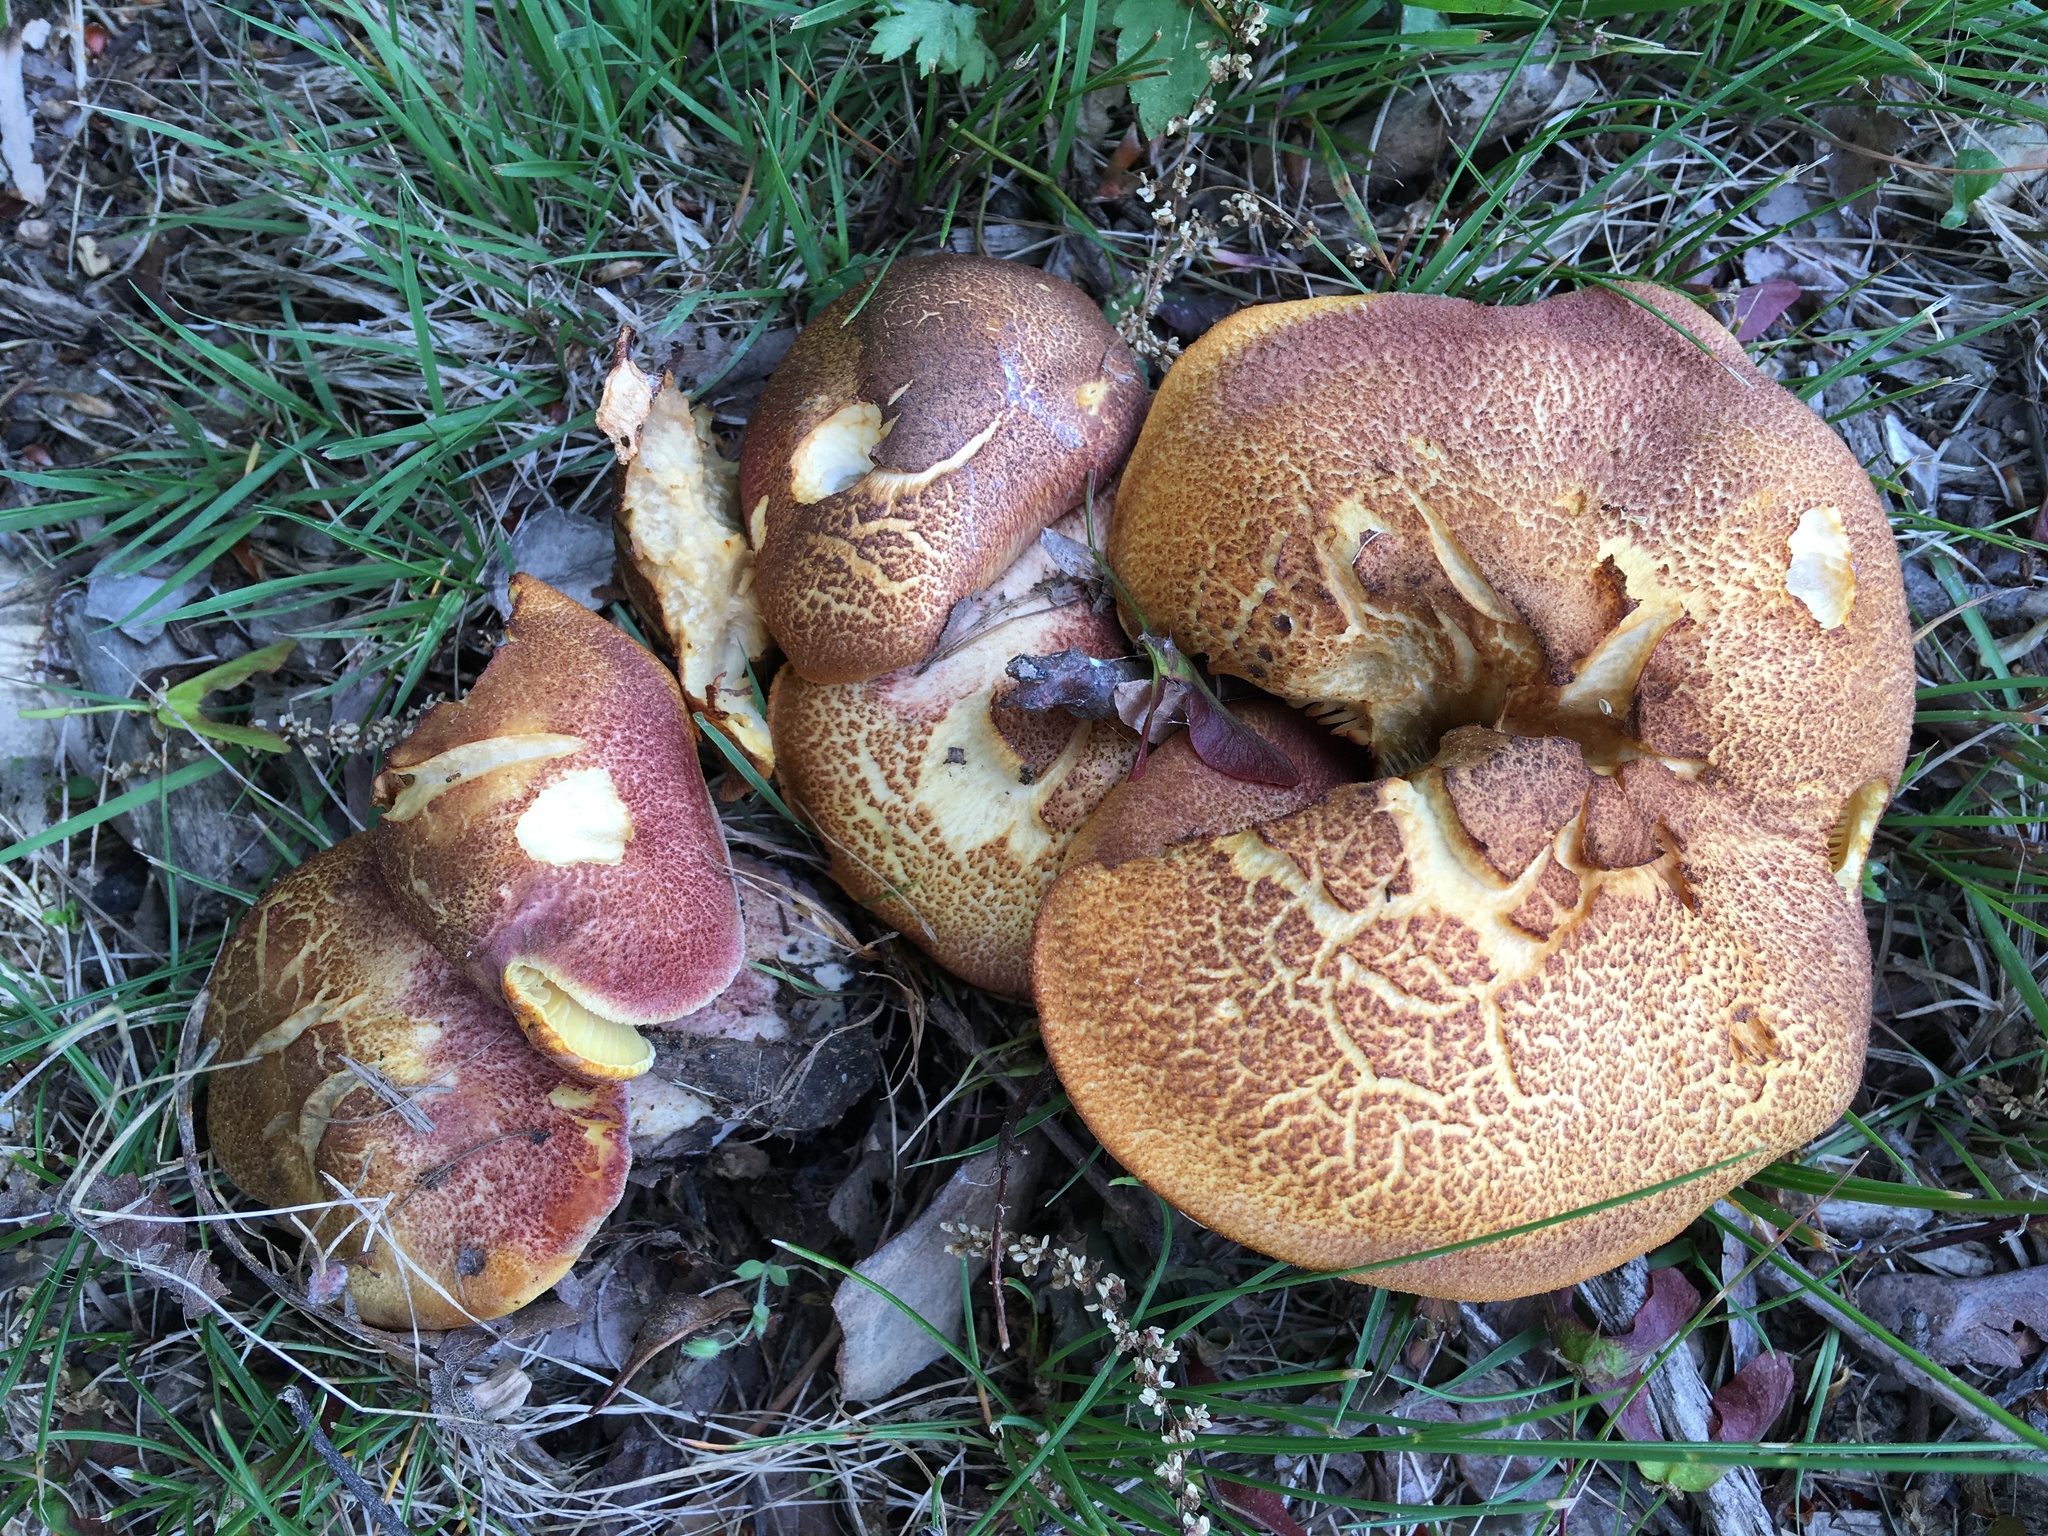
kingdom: Fungi
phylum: Basidiomycota
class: Agaricomycetes
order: Agaricales
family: Tricholomataceae
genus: Tricholomopsis
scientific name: Tricholomopsis rutilans
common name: Plums and custard
